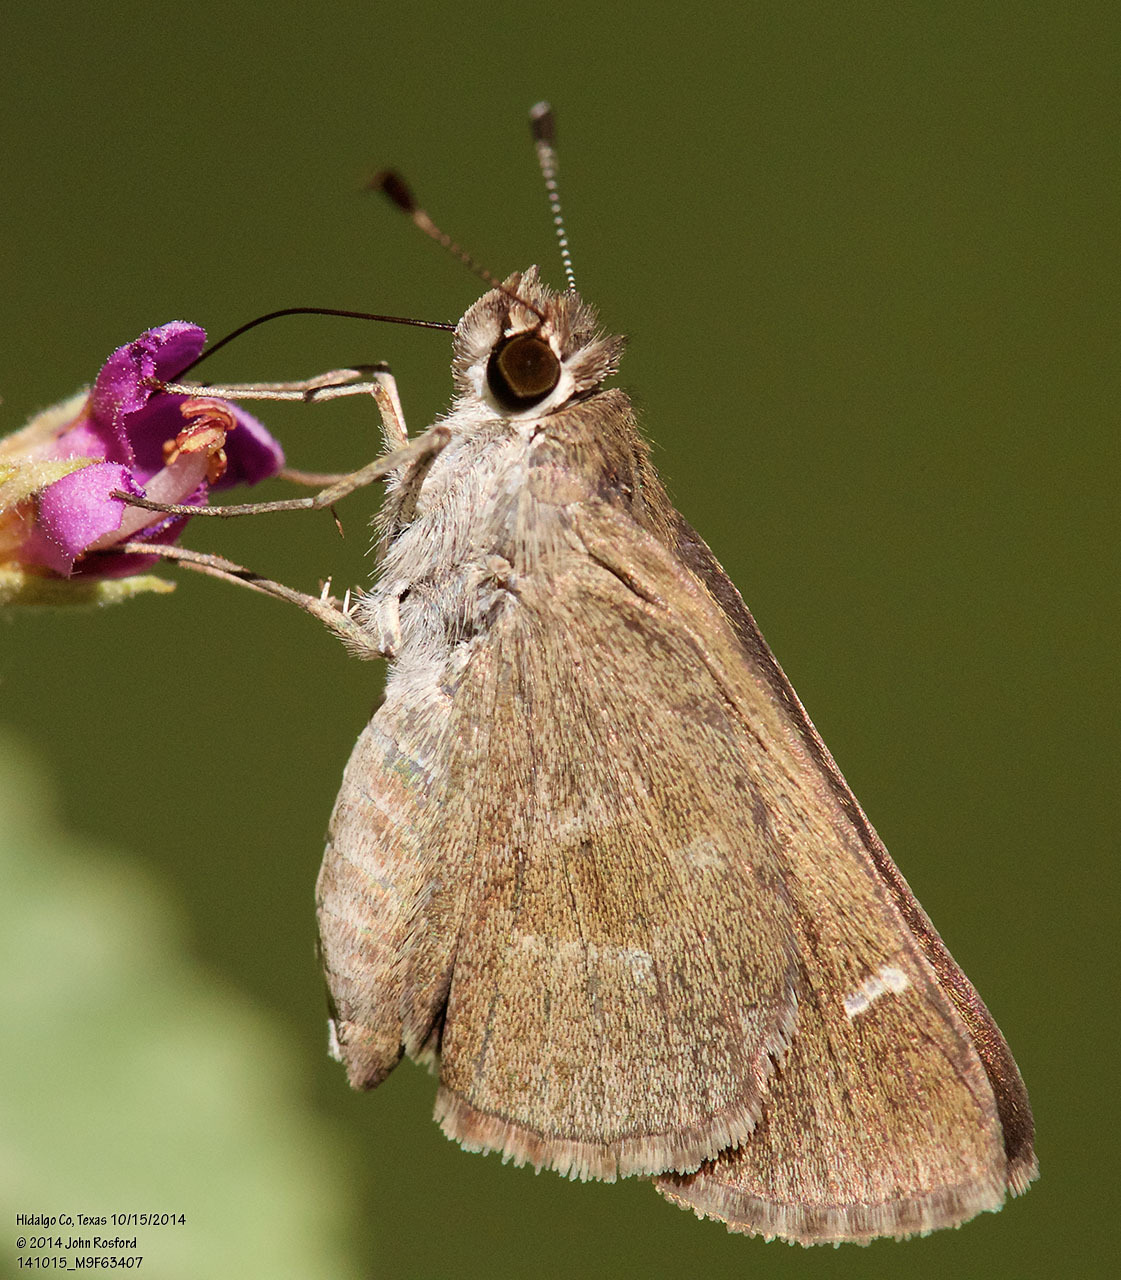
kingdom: Animalia
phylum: Arthropoda
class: Insecta
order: Lepidoptera
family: Hesperiidae
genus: Lerodea
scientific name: Lerodea arabus
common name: Violet-clouded skipper
